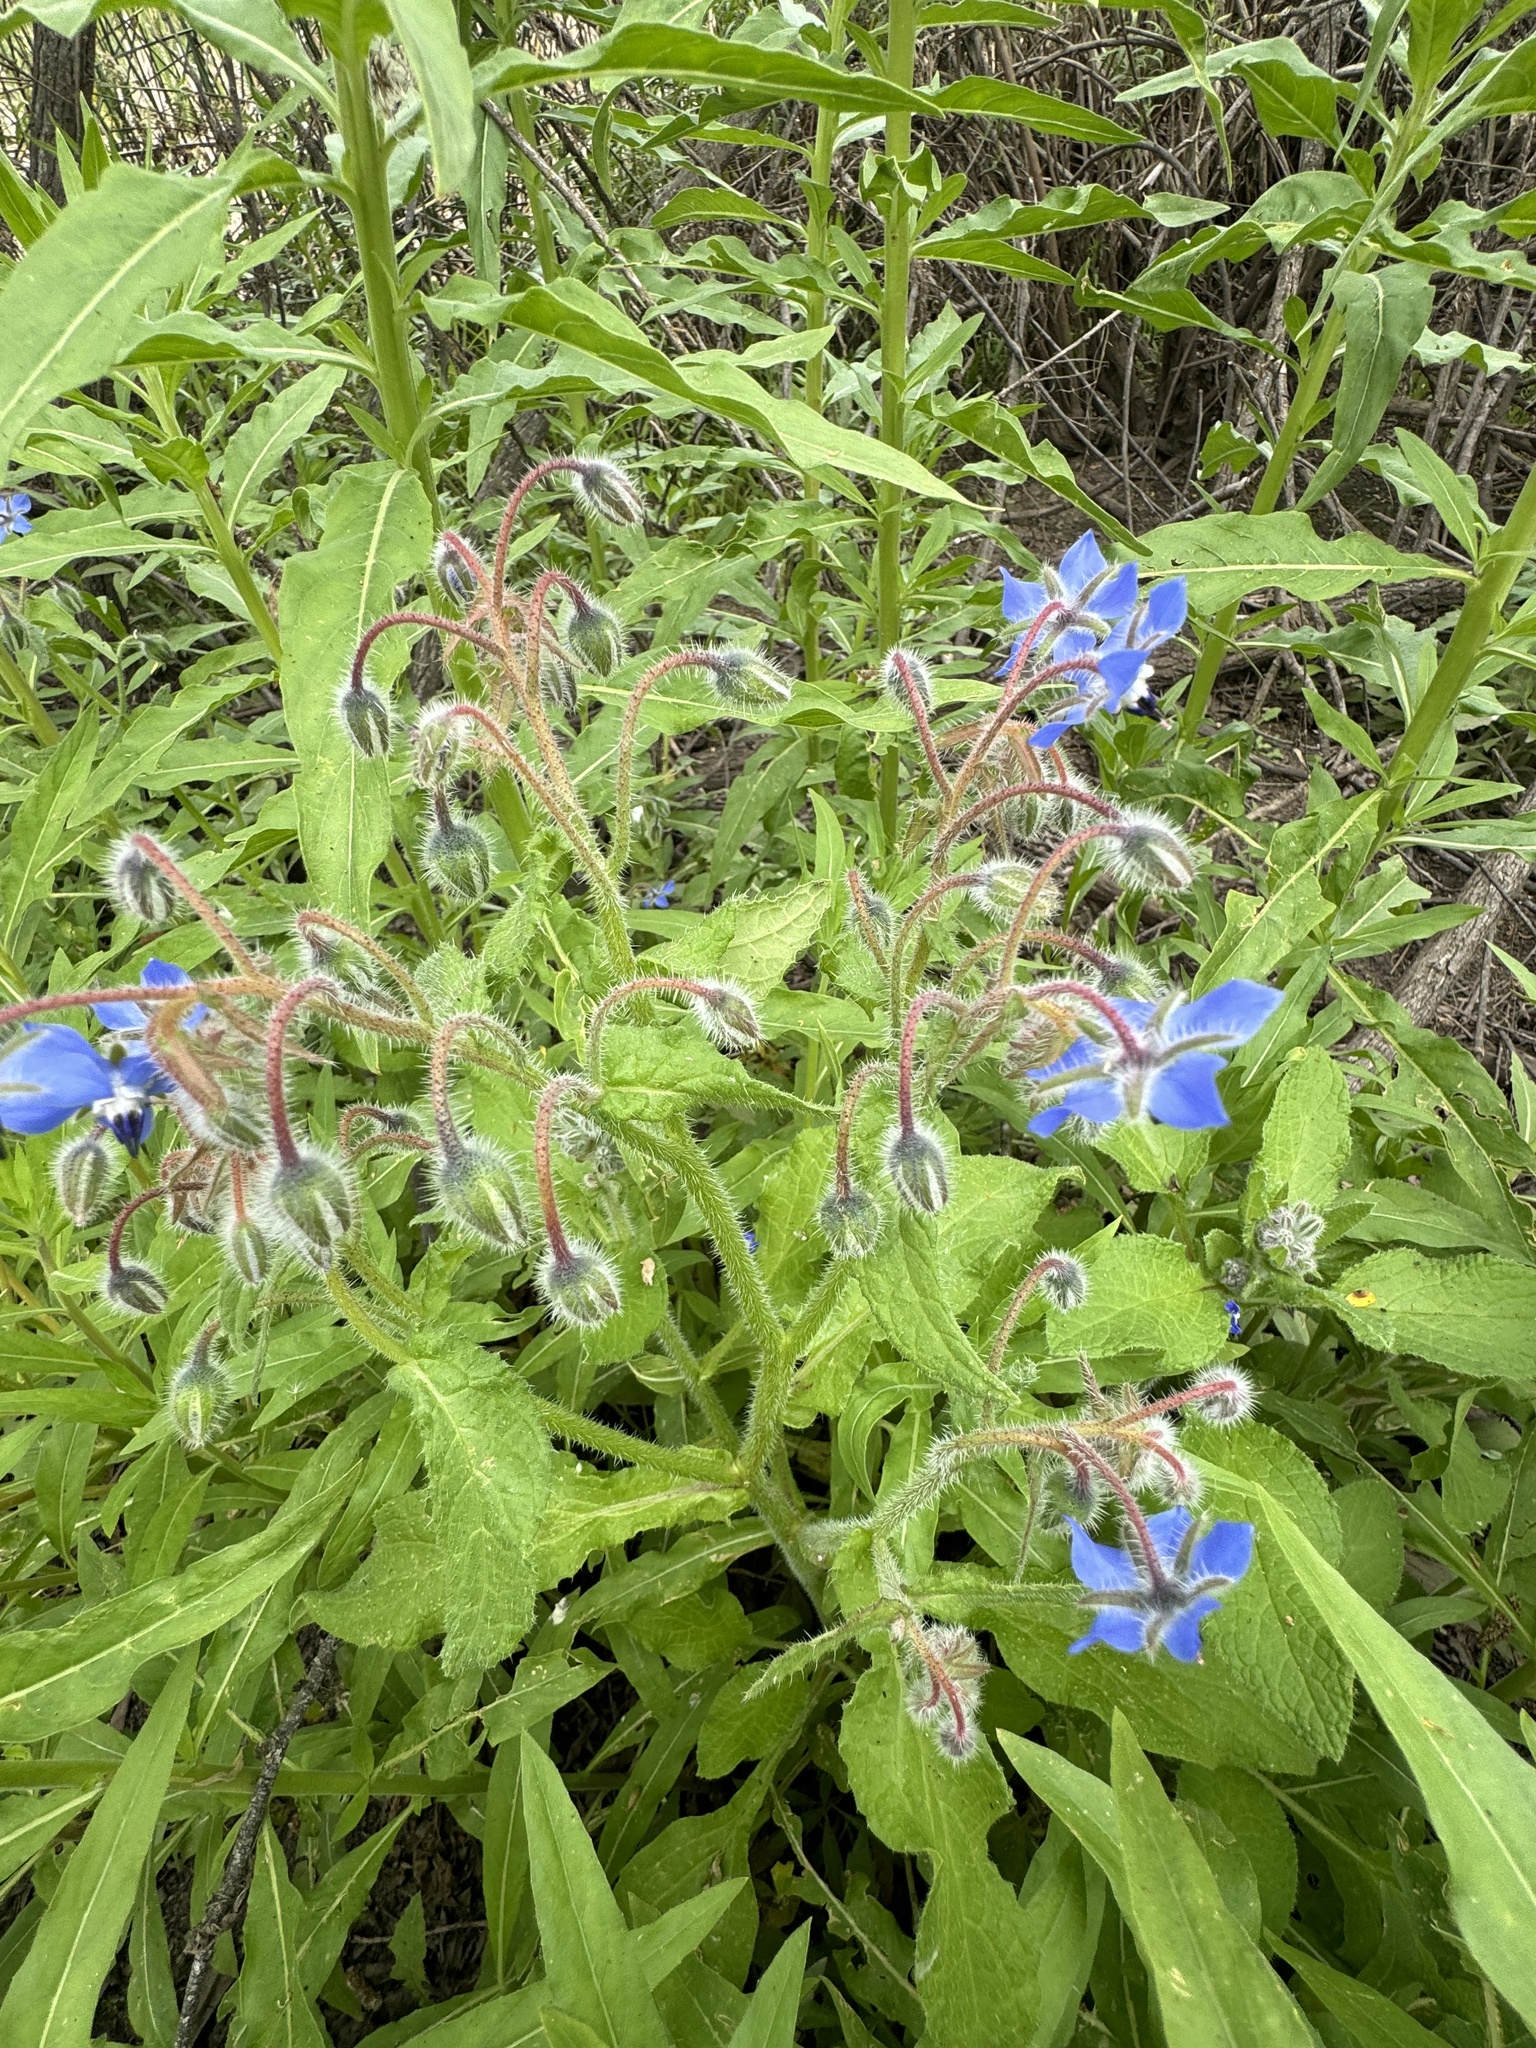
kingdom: Plantae
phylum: Tracheophyta
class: Magnoliopsida
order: Boraginales
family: Boraginaceae
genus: Borago
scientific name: Borago officinalis
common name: Borage
